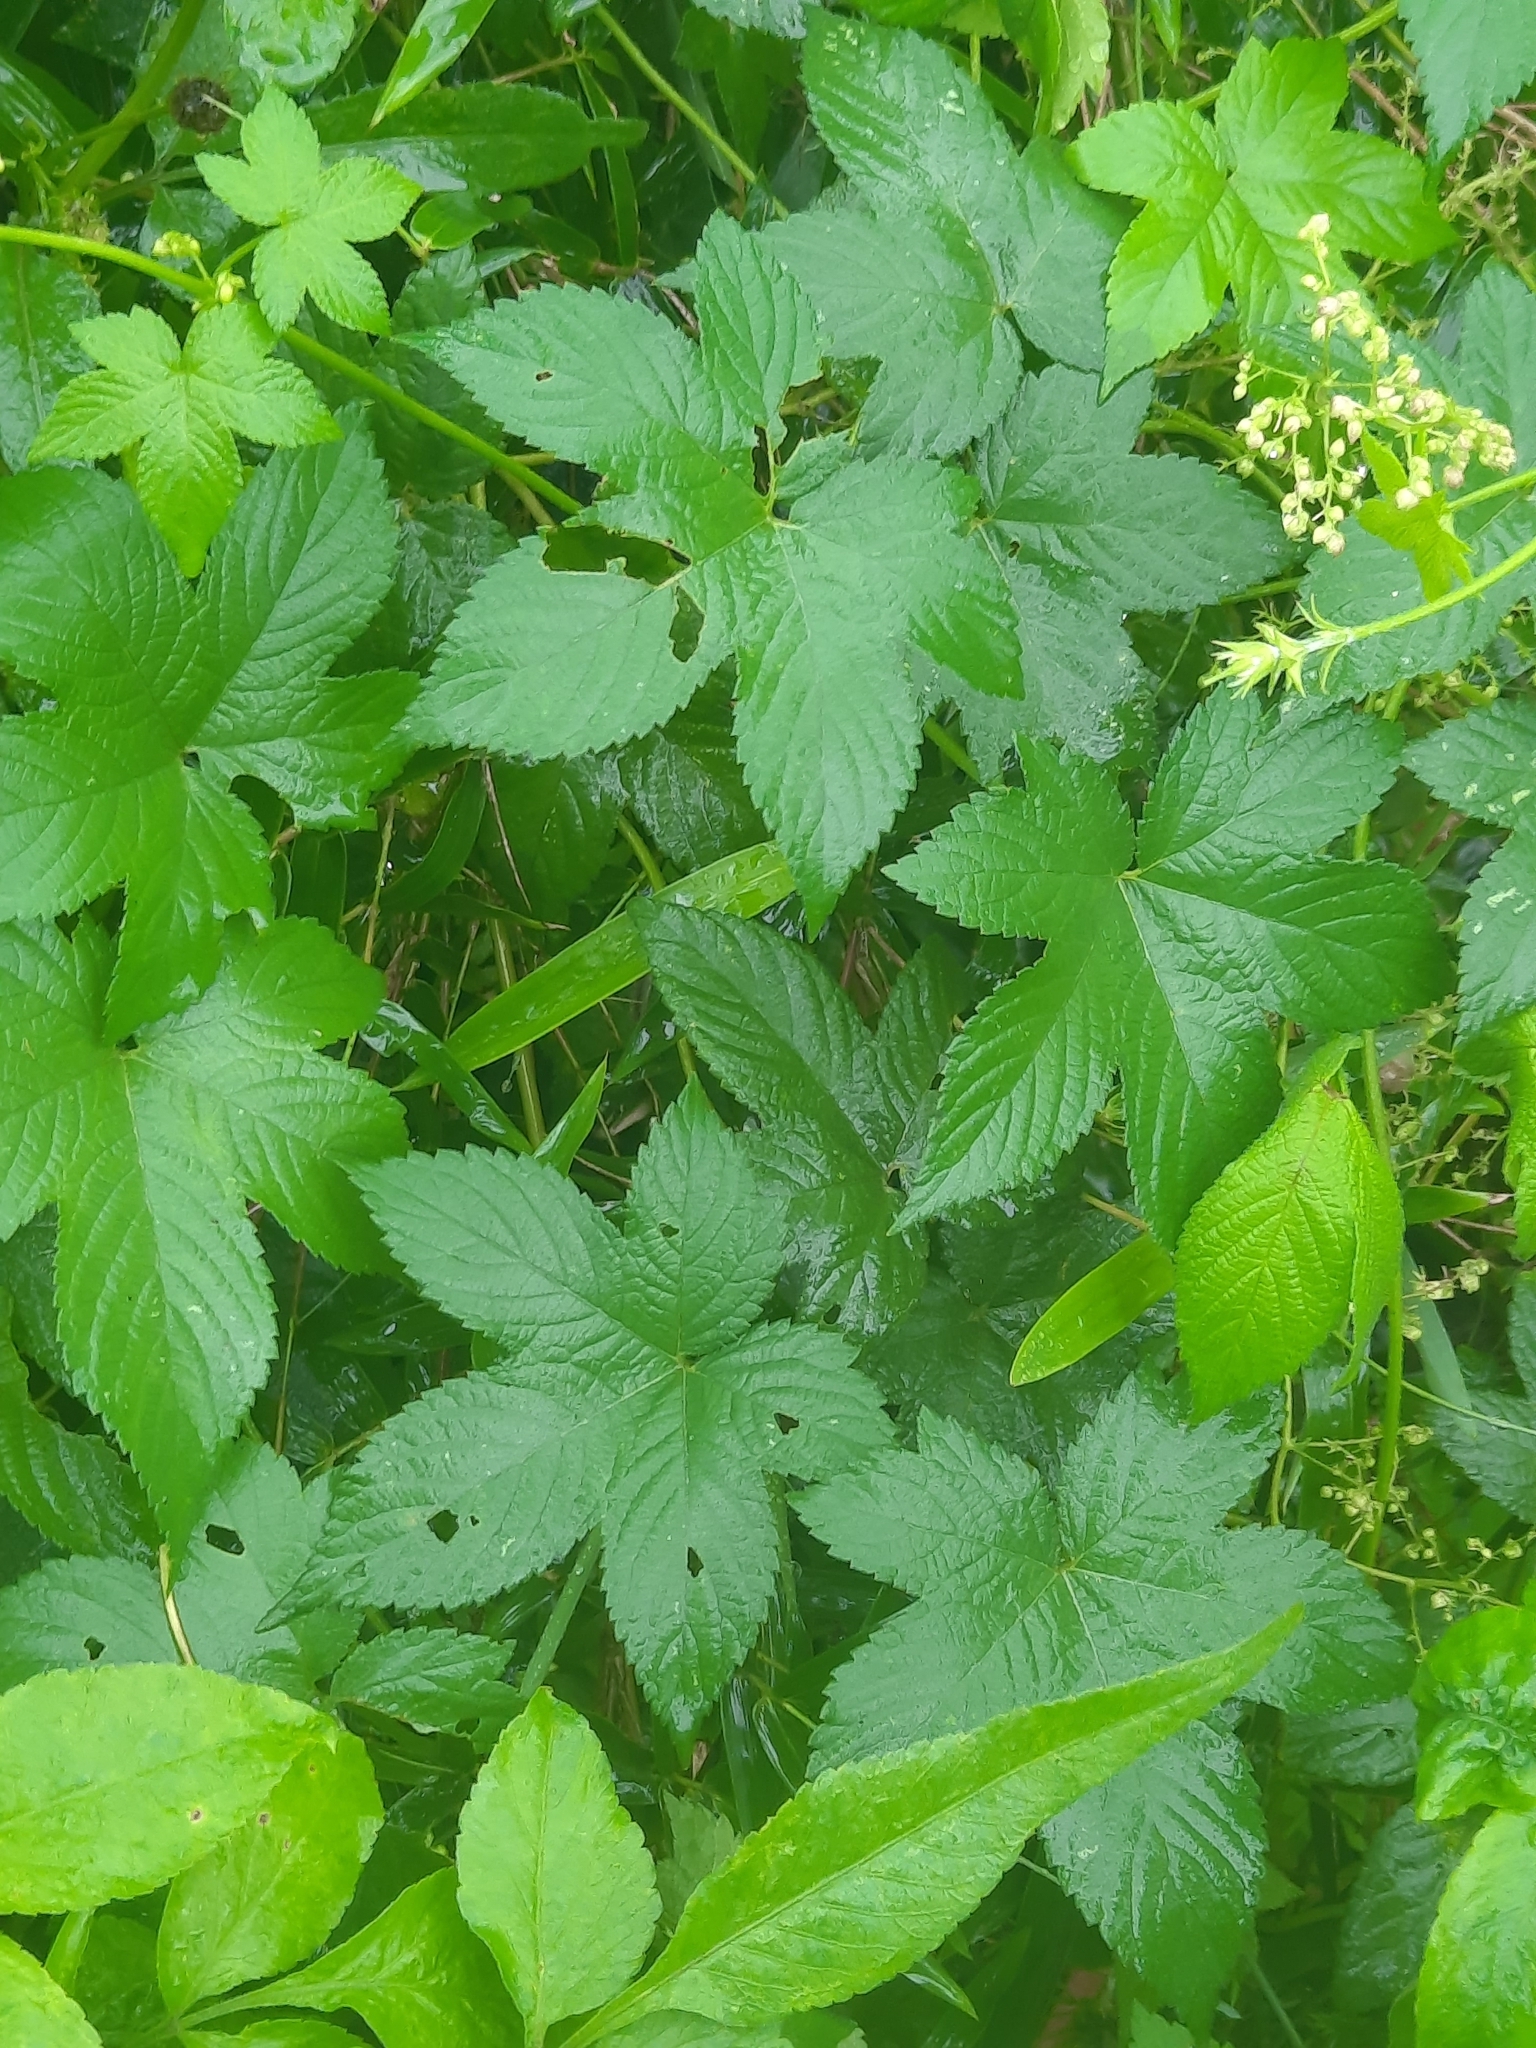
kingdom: Plantae
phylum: Tracheophyta
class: Magnoliopsida
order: Rosales
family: Cannabaceae
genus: Humulus
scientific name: Humulus scandens
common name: Japanese hop
